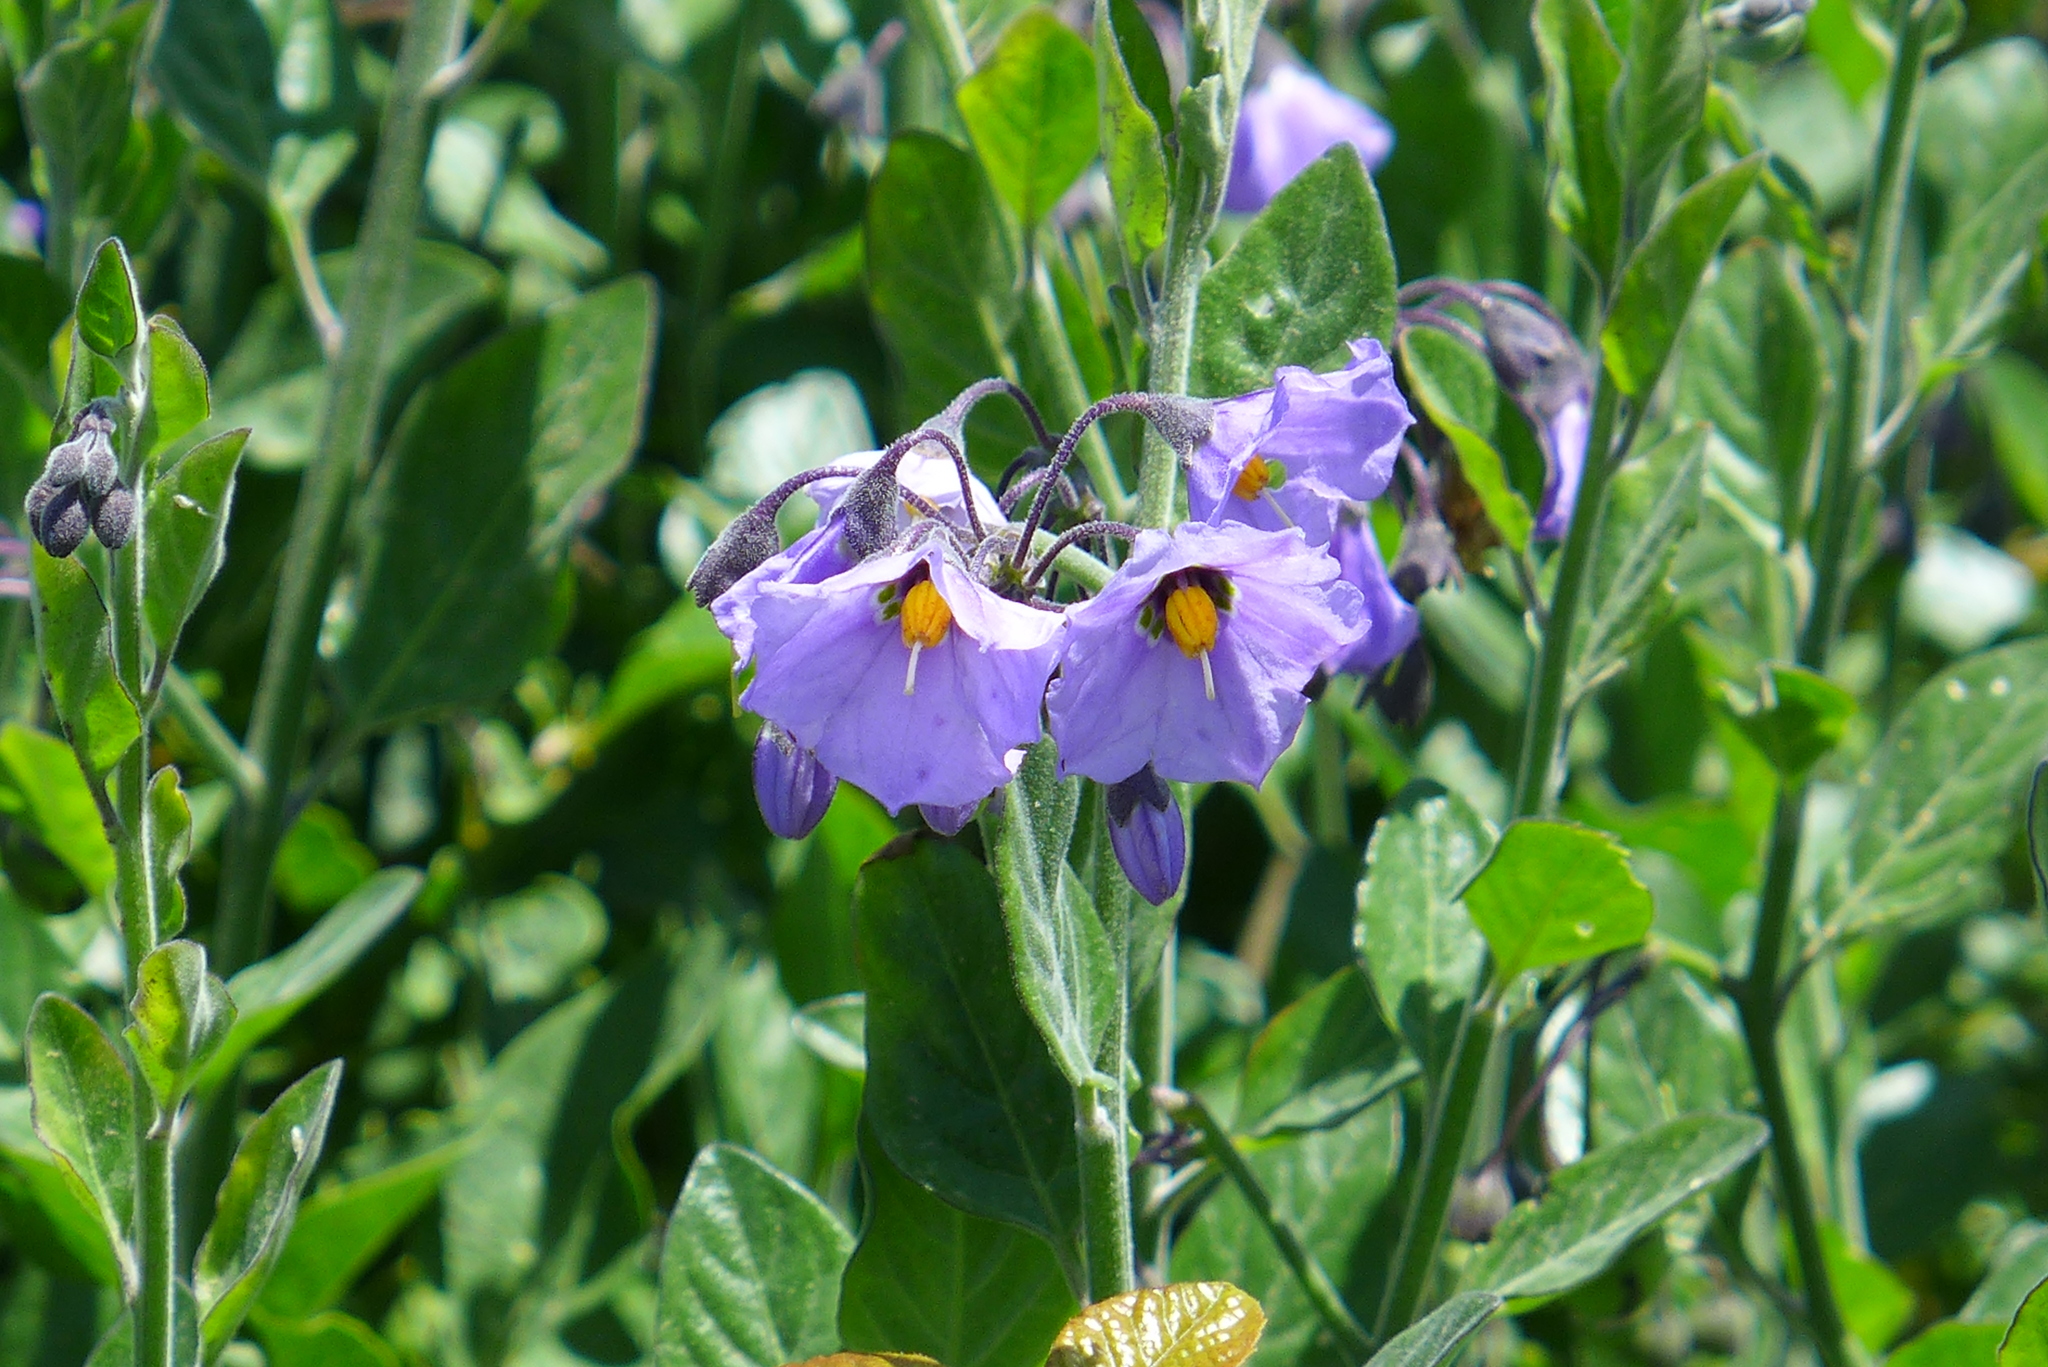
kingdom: Plantae
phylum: Tracheophyta
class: Magnoliopsida
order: Solanales
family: Solanaceae
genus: Solanum
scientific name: Solanum umbelliferum
